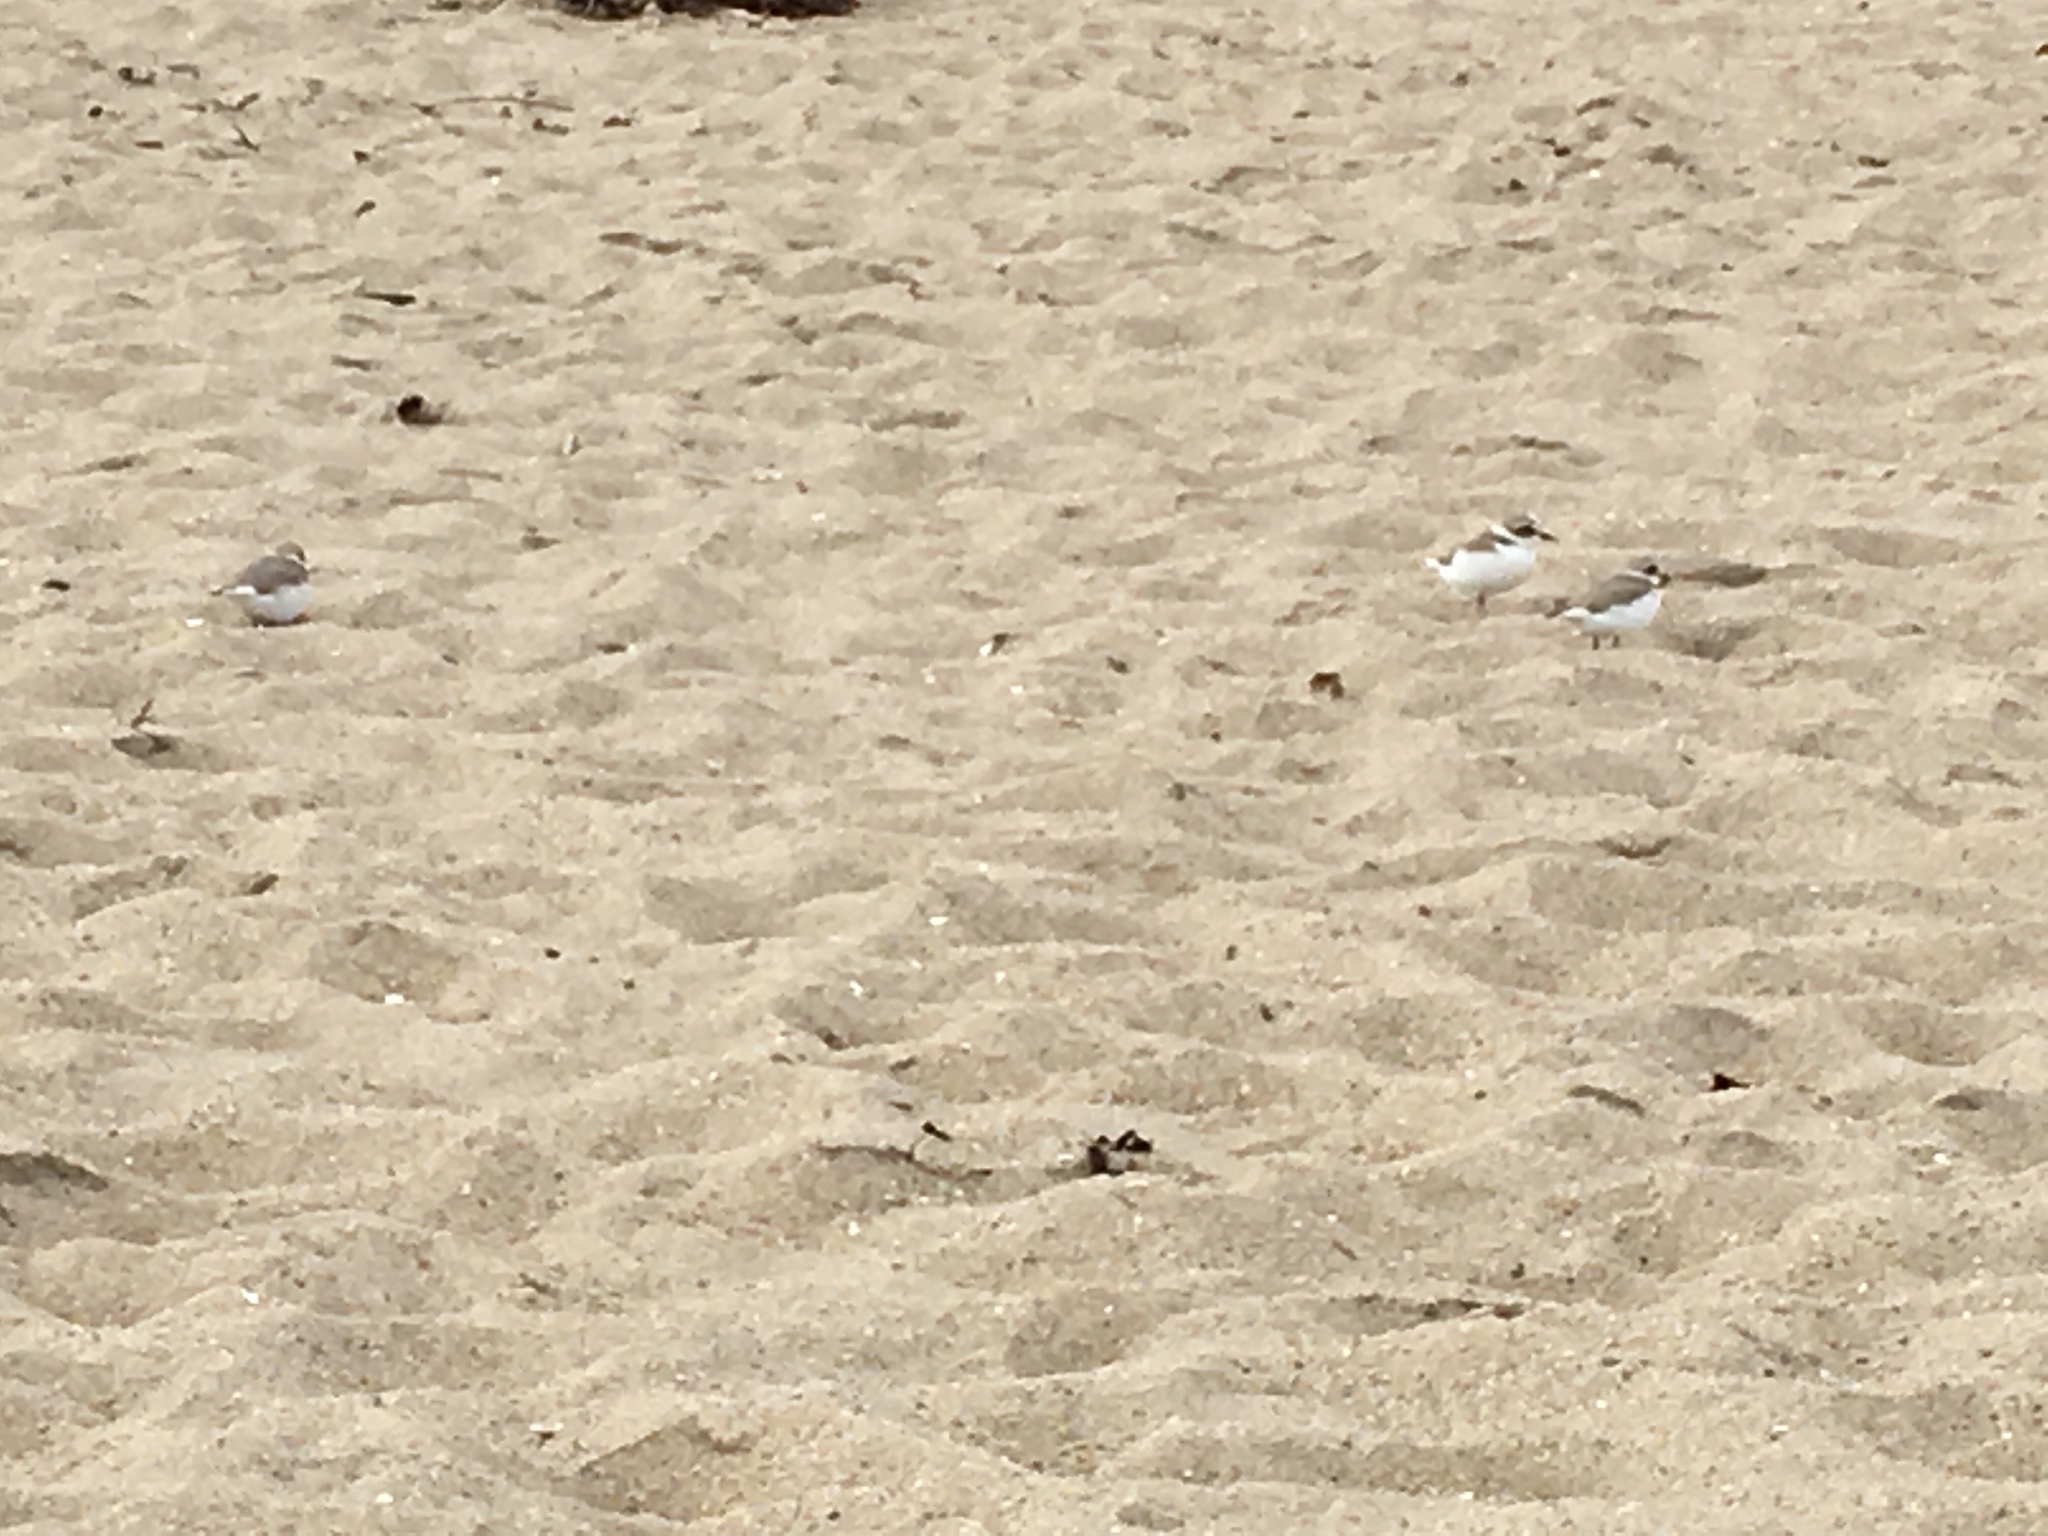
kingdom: Animalia
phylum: Chordata
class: Aves
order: Charadriiformes
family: Charadriidae
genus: Anarhynchus
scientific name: Anarhynchus
